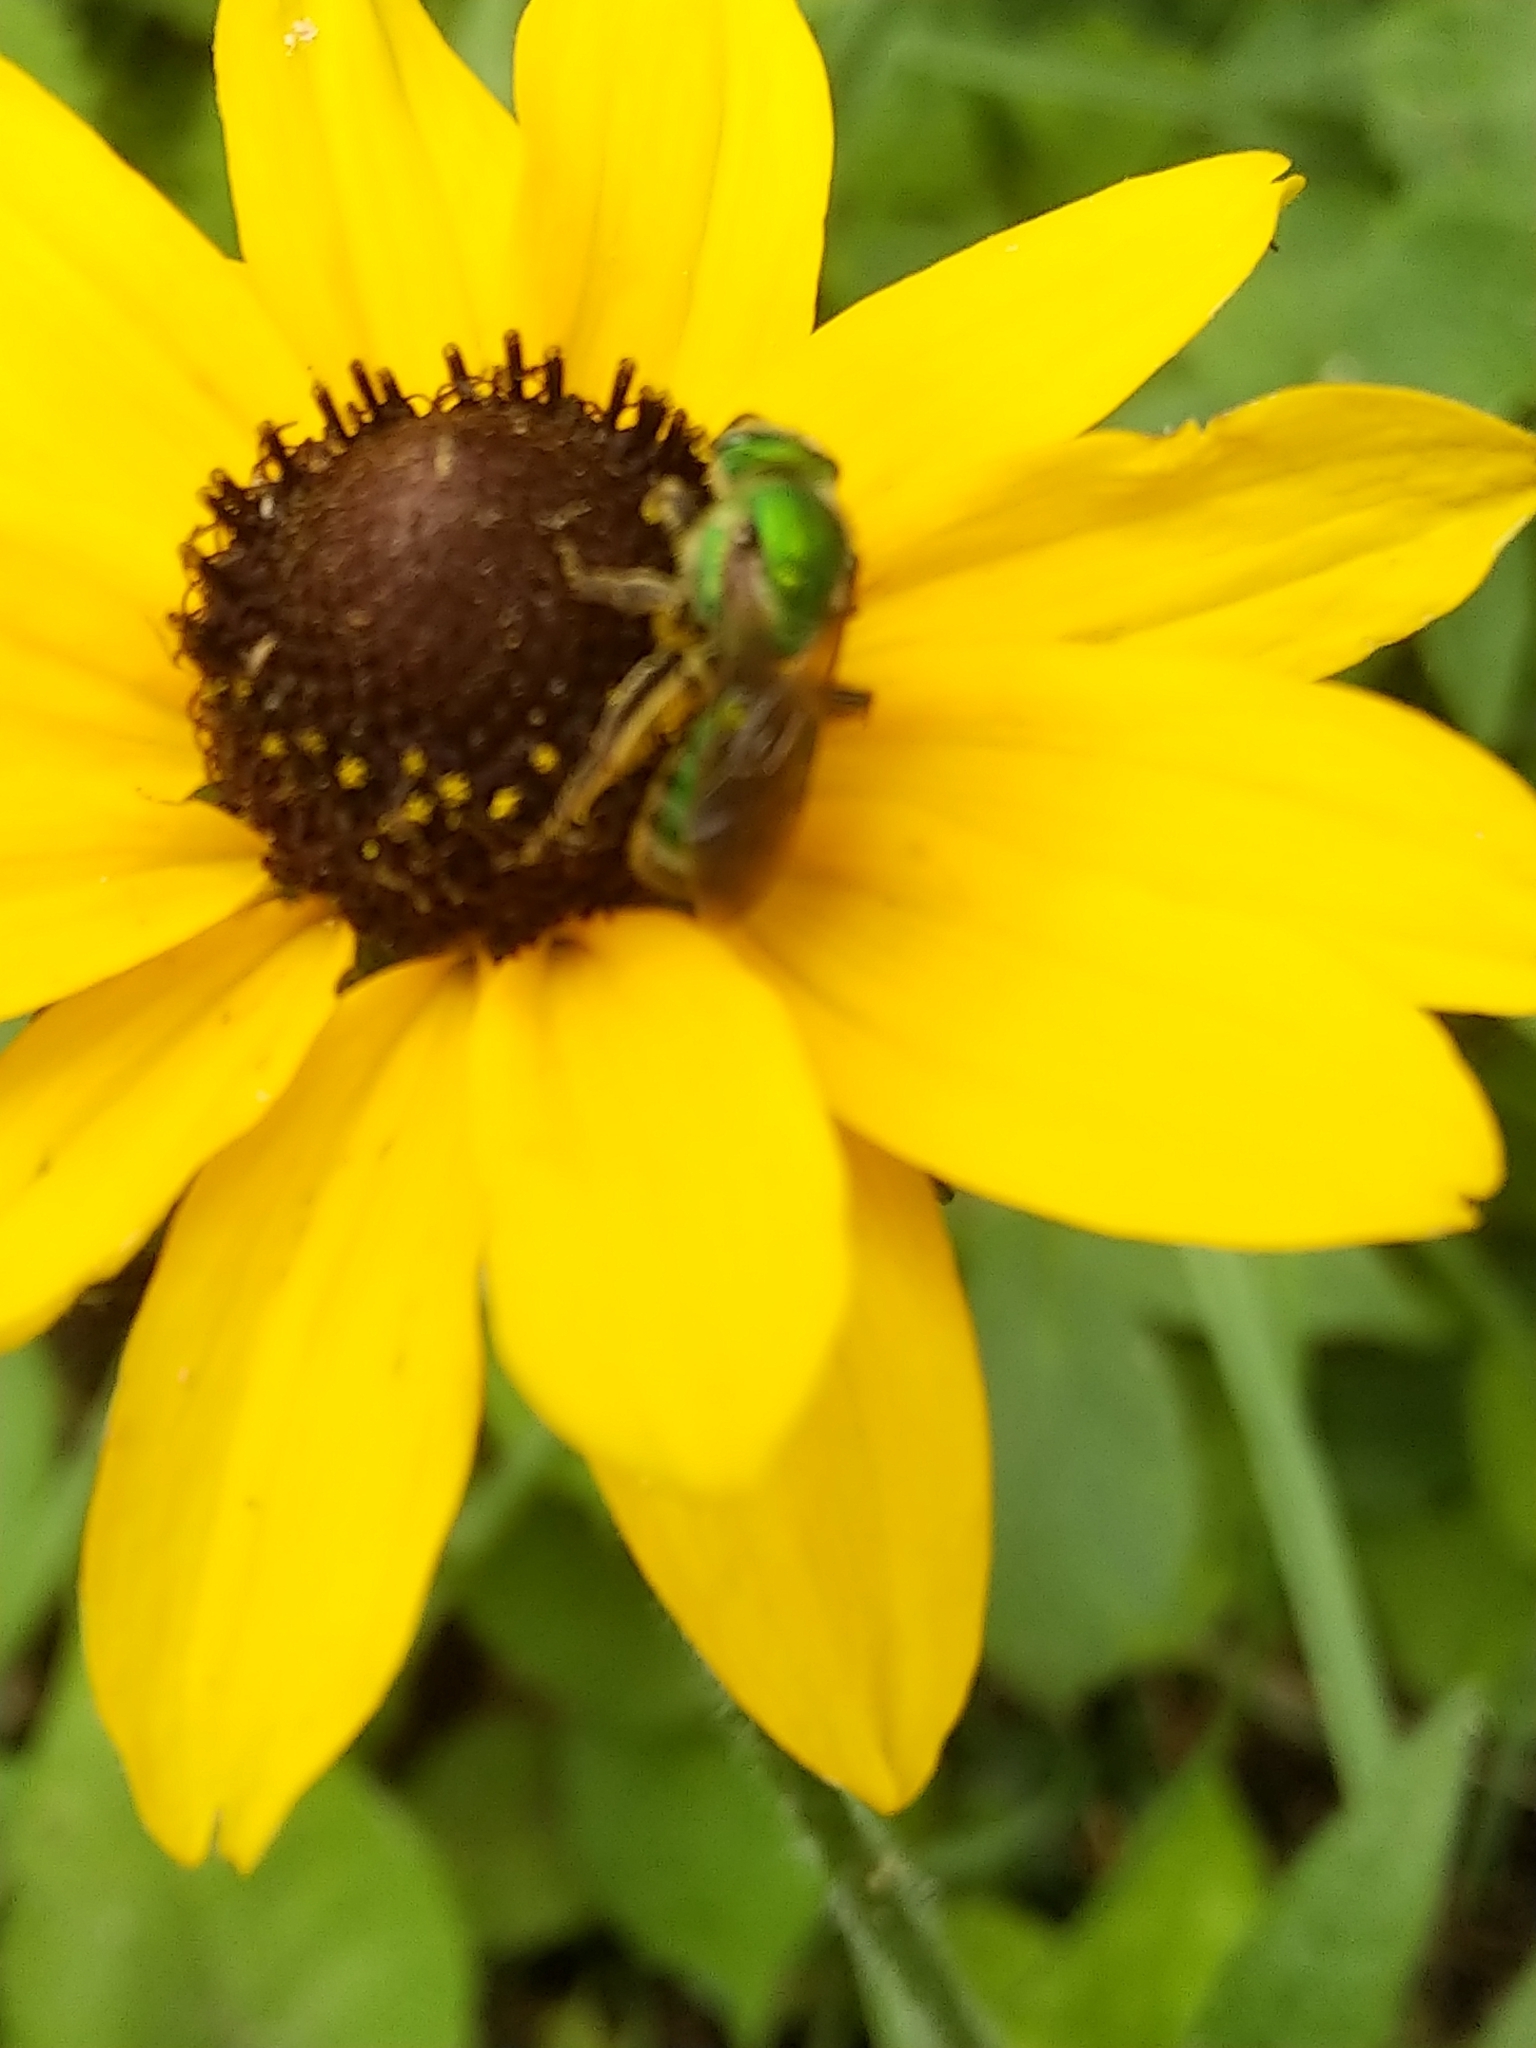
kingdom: Animalia
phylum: Arthropoda
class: Insecta
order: Hymenoptera
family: Halictidae
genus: Augochlora
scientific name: Augochlora pura
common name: Pure green sweat bee
